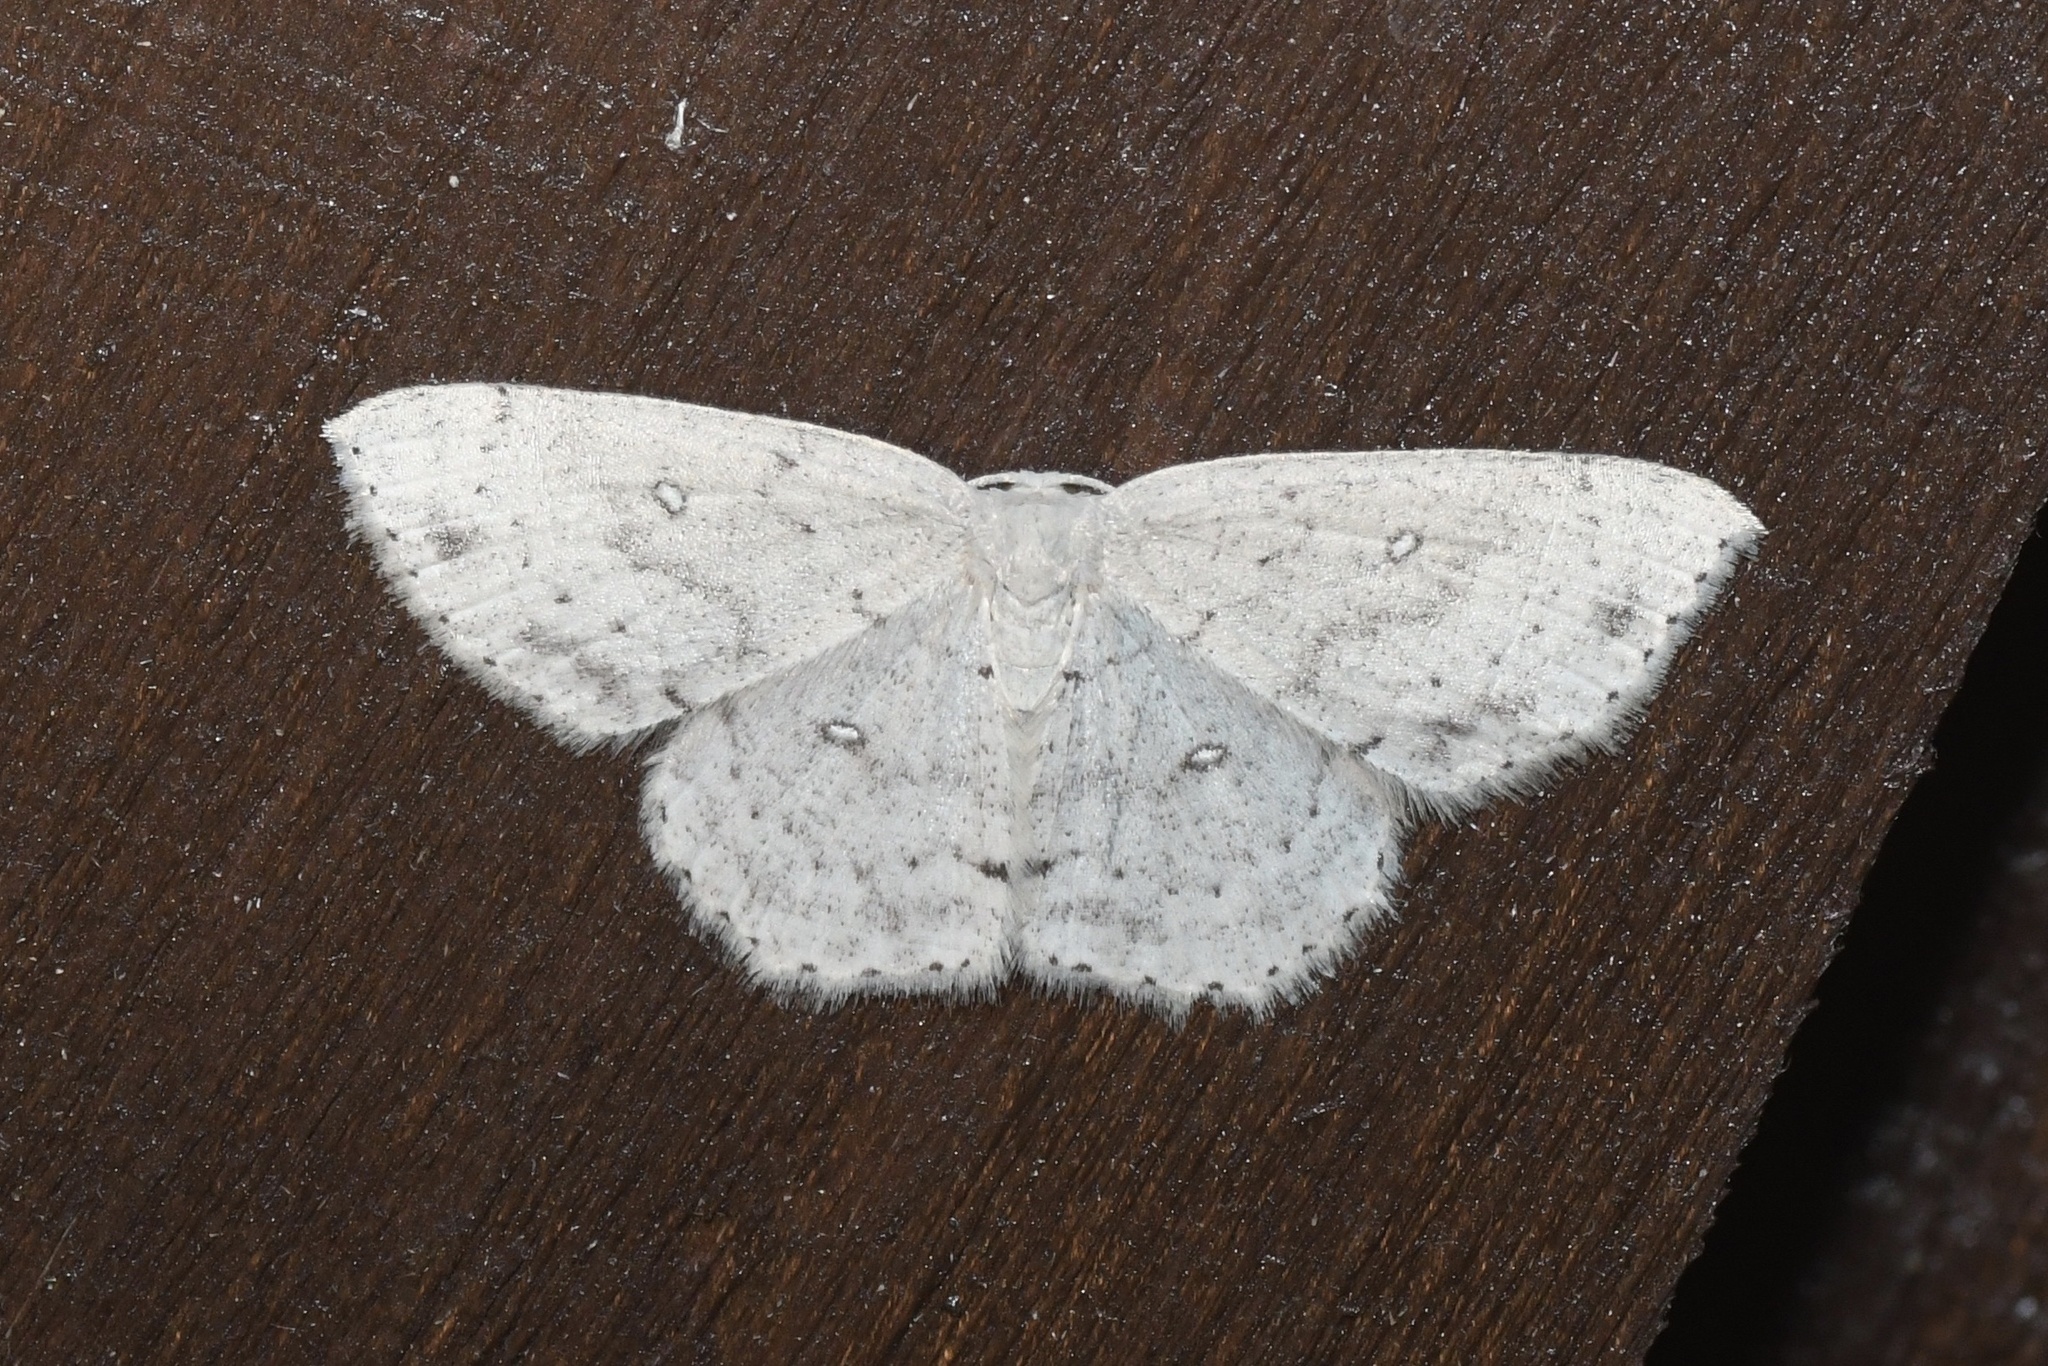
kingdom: Animalia
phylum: Arthropoda
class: Insecta
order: Lepidoptera
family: Geometridae
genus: Cyclophora
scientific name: Cyclophora pendulinaria
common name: Sweet fern geometer
